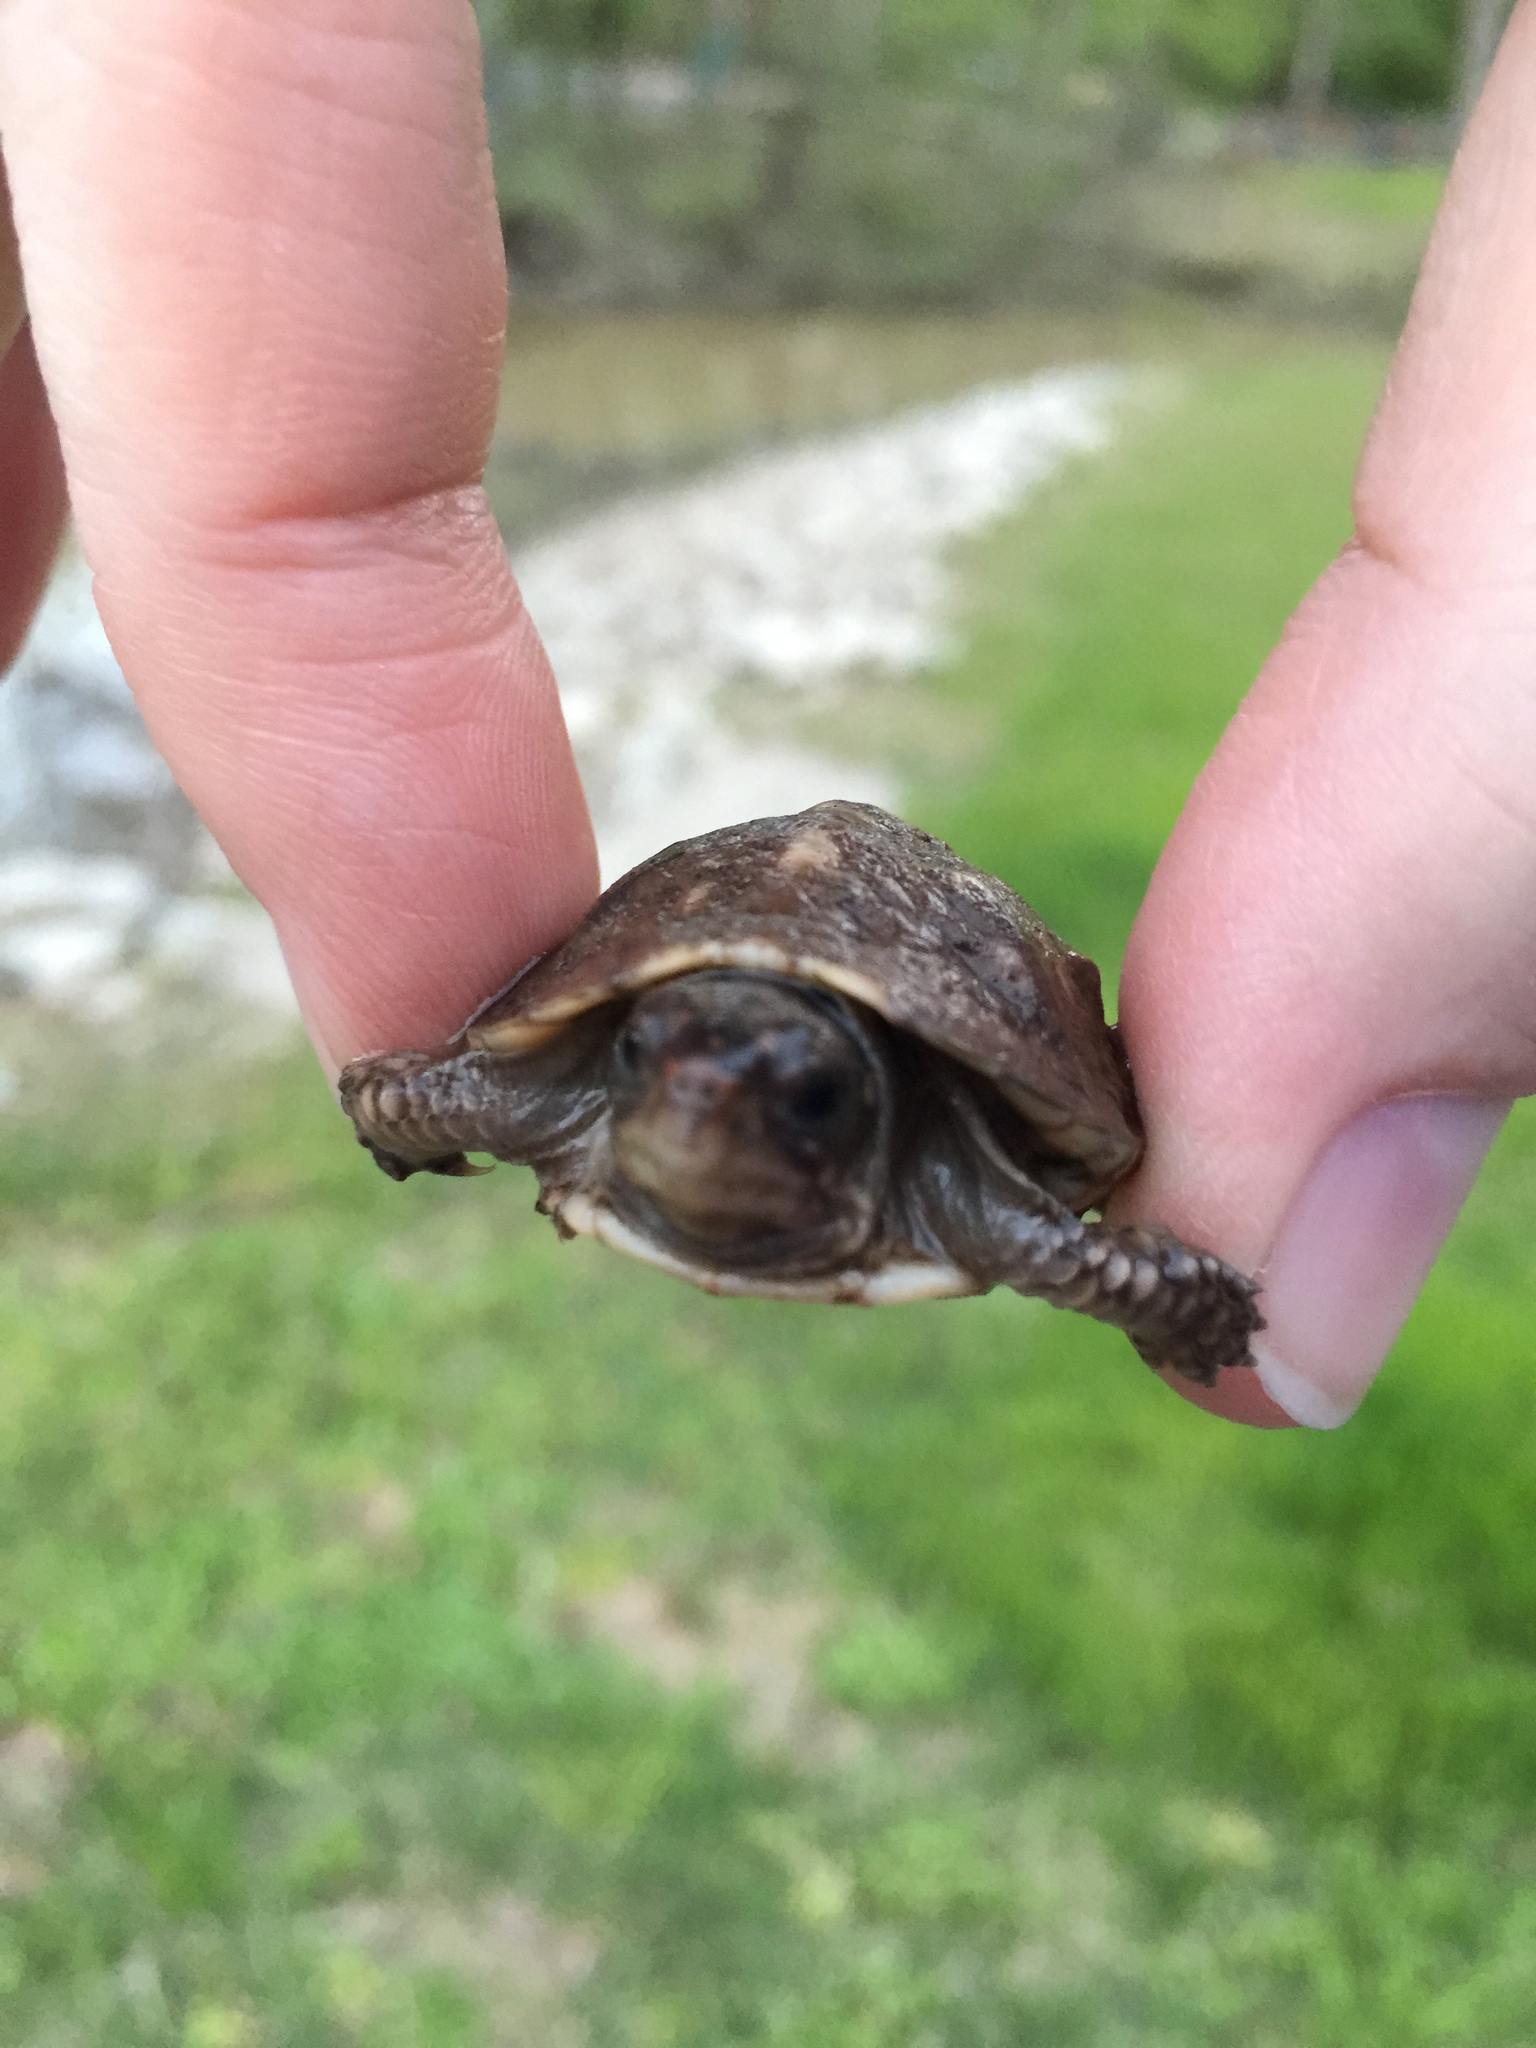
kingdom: Animalia
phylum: Chordata
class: Testudines
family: Emydidae
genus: Terrapene
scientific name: Terrapene carolina
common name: Common box turtle
